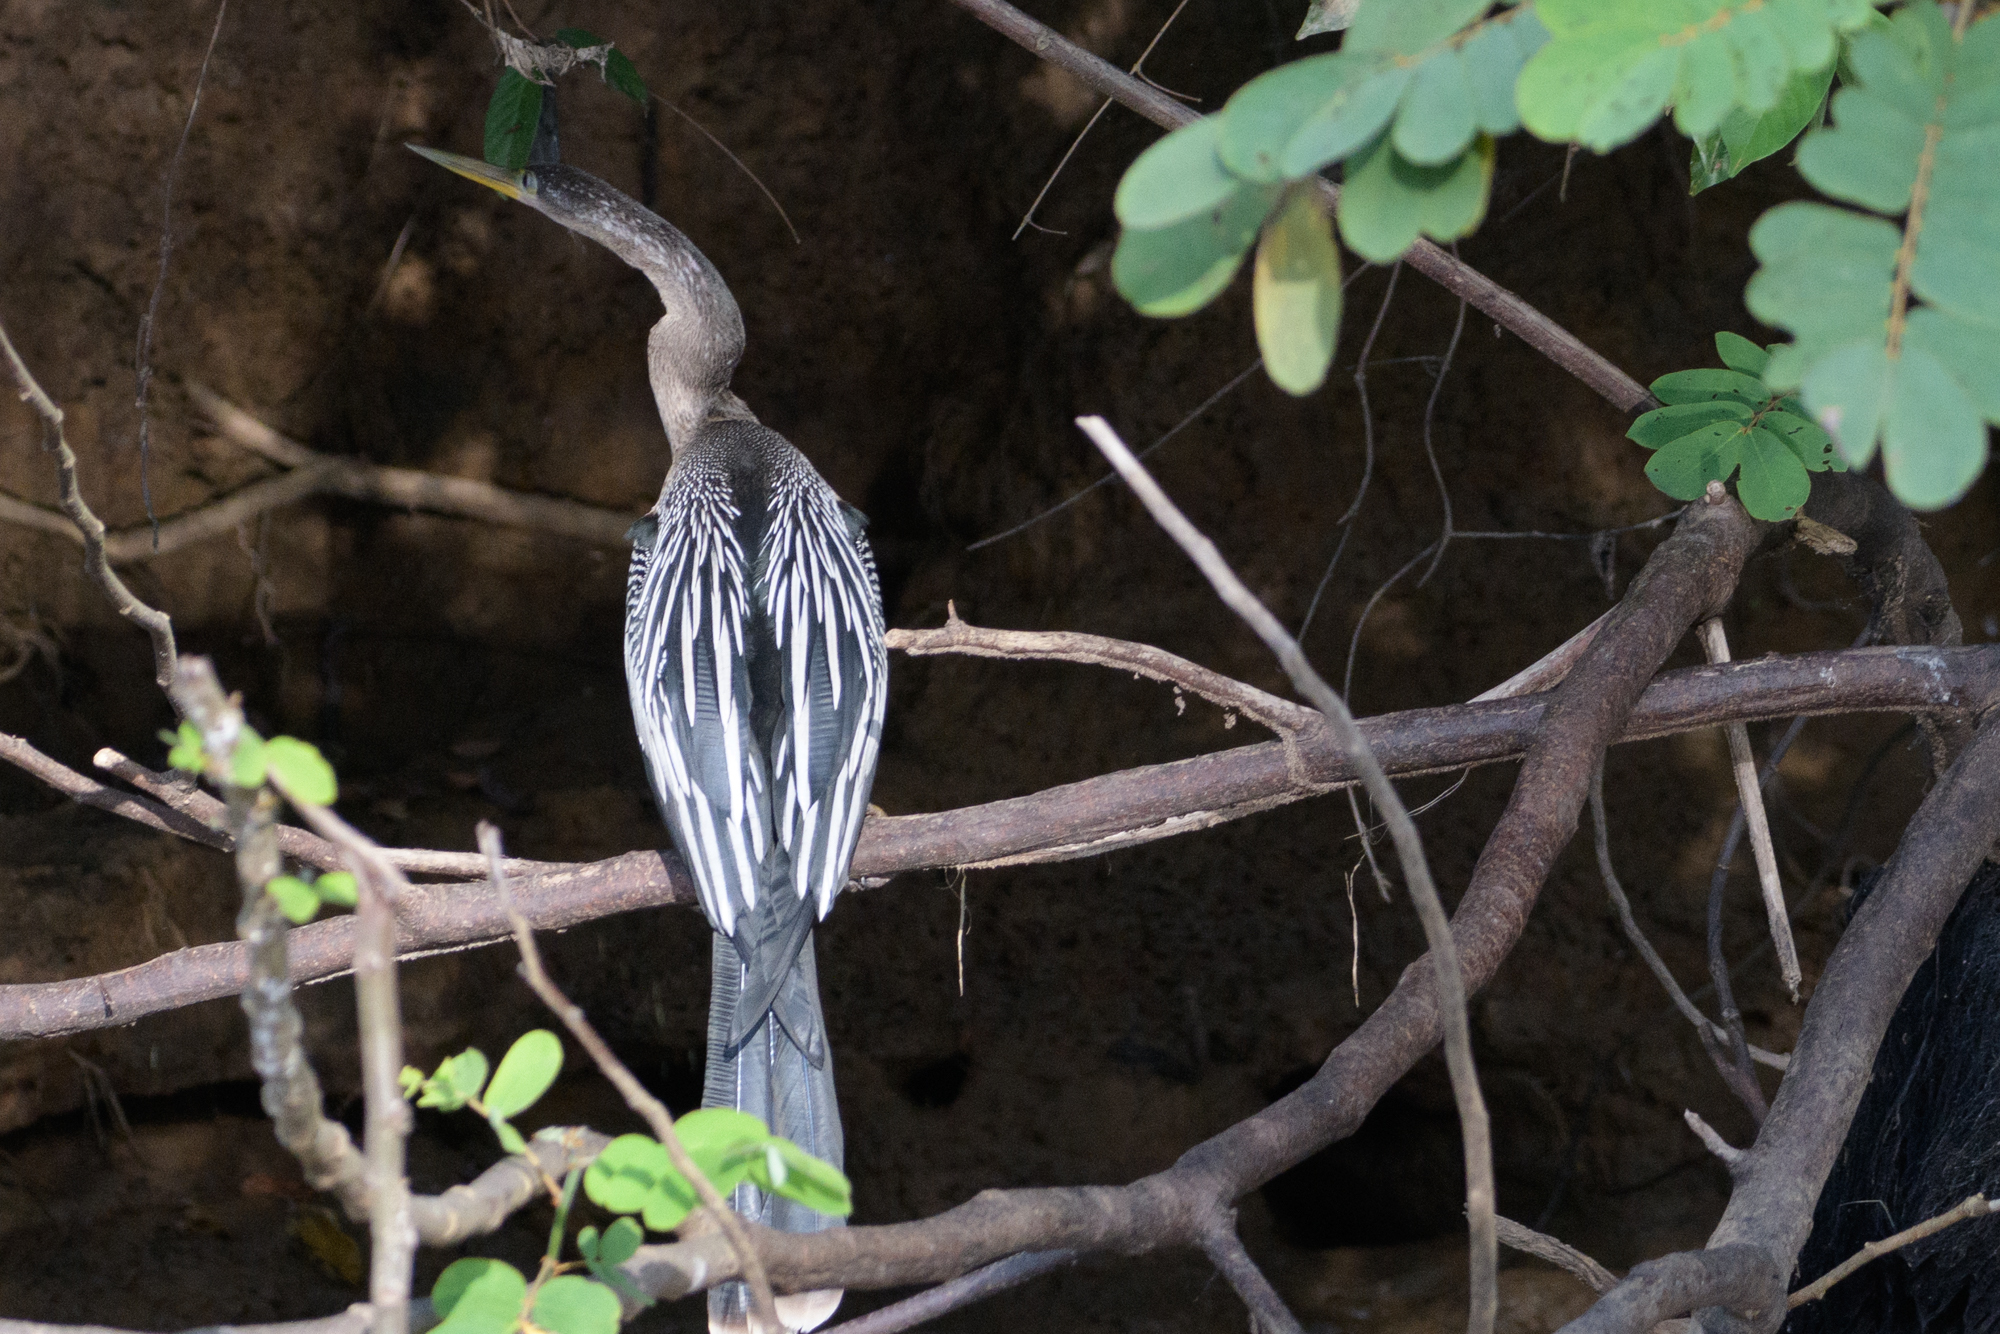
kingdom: Animalia
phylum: Chordata
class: Aves
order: Suliformes
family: Anhingidae
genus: Anhinga
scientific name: Anhinga anhinga
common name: Anhinga
